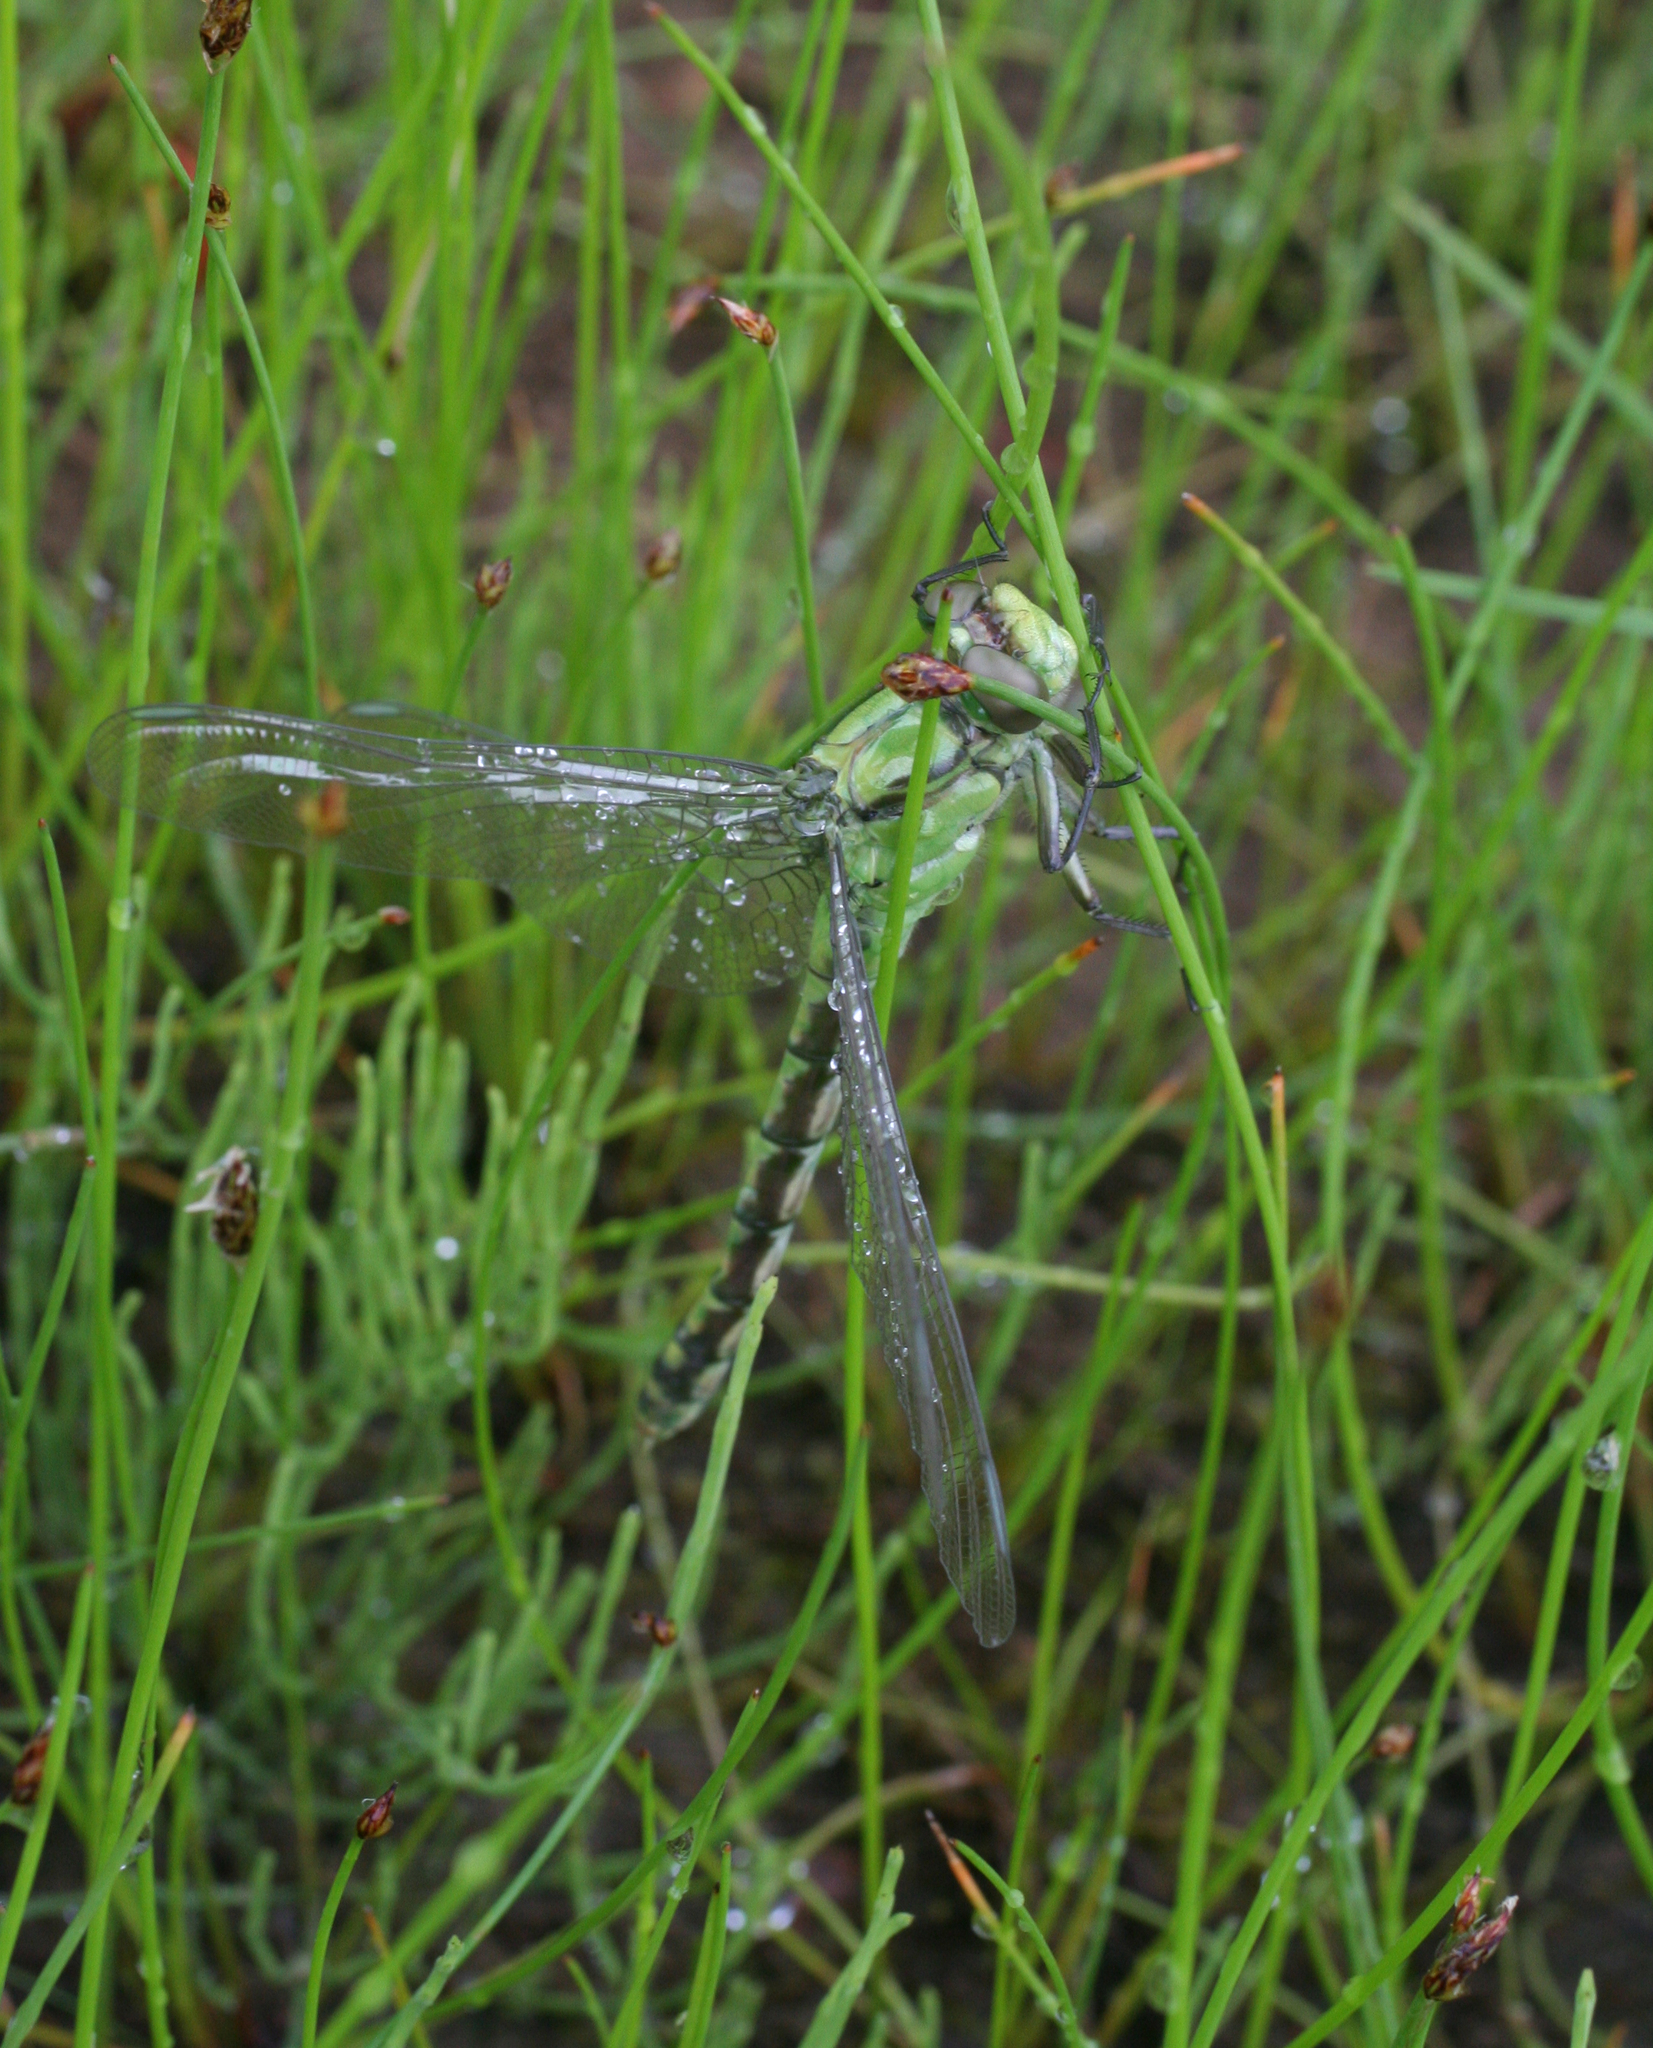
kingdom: Animalia
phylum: Arthropoda
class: Insecta
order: Odonata
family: Gomphidae
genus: Ophiogomphus
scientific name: Ophiogomphus obscurus
